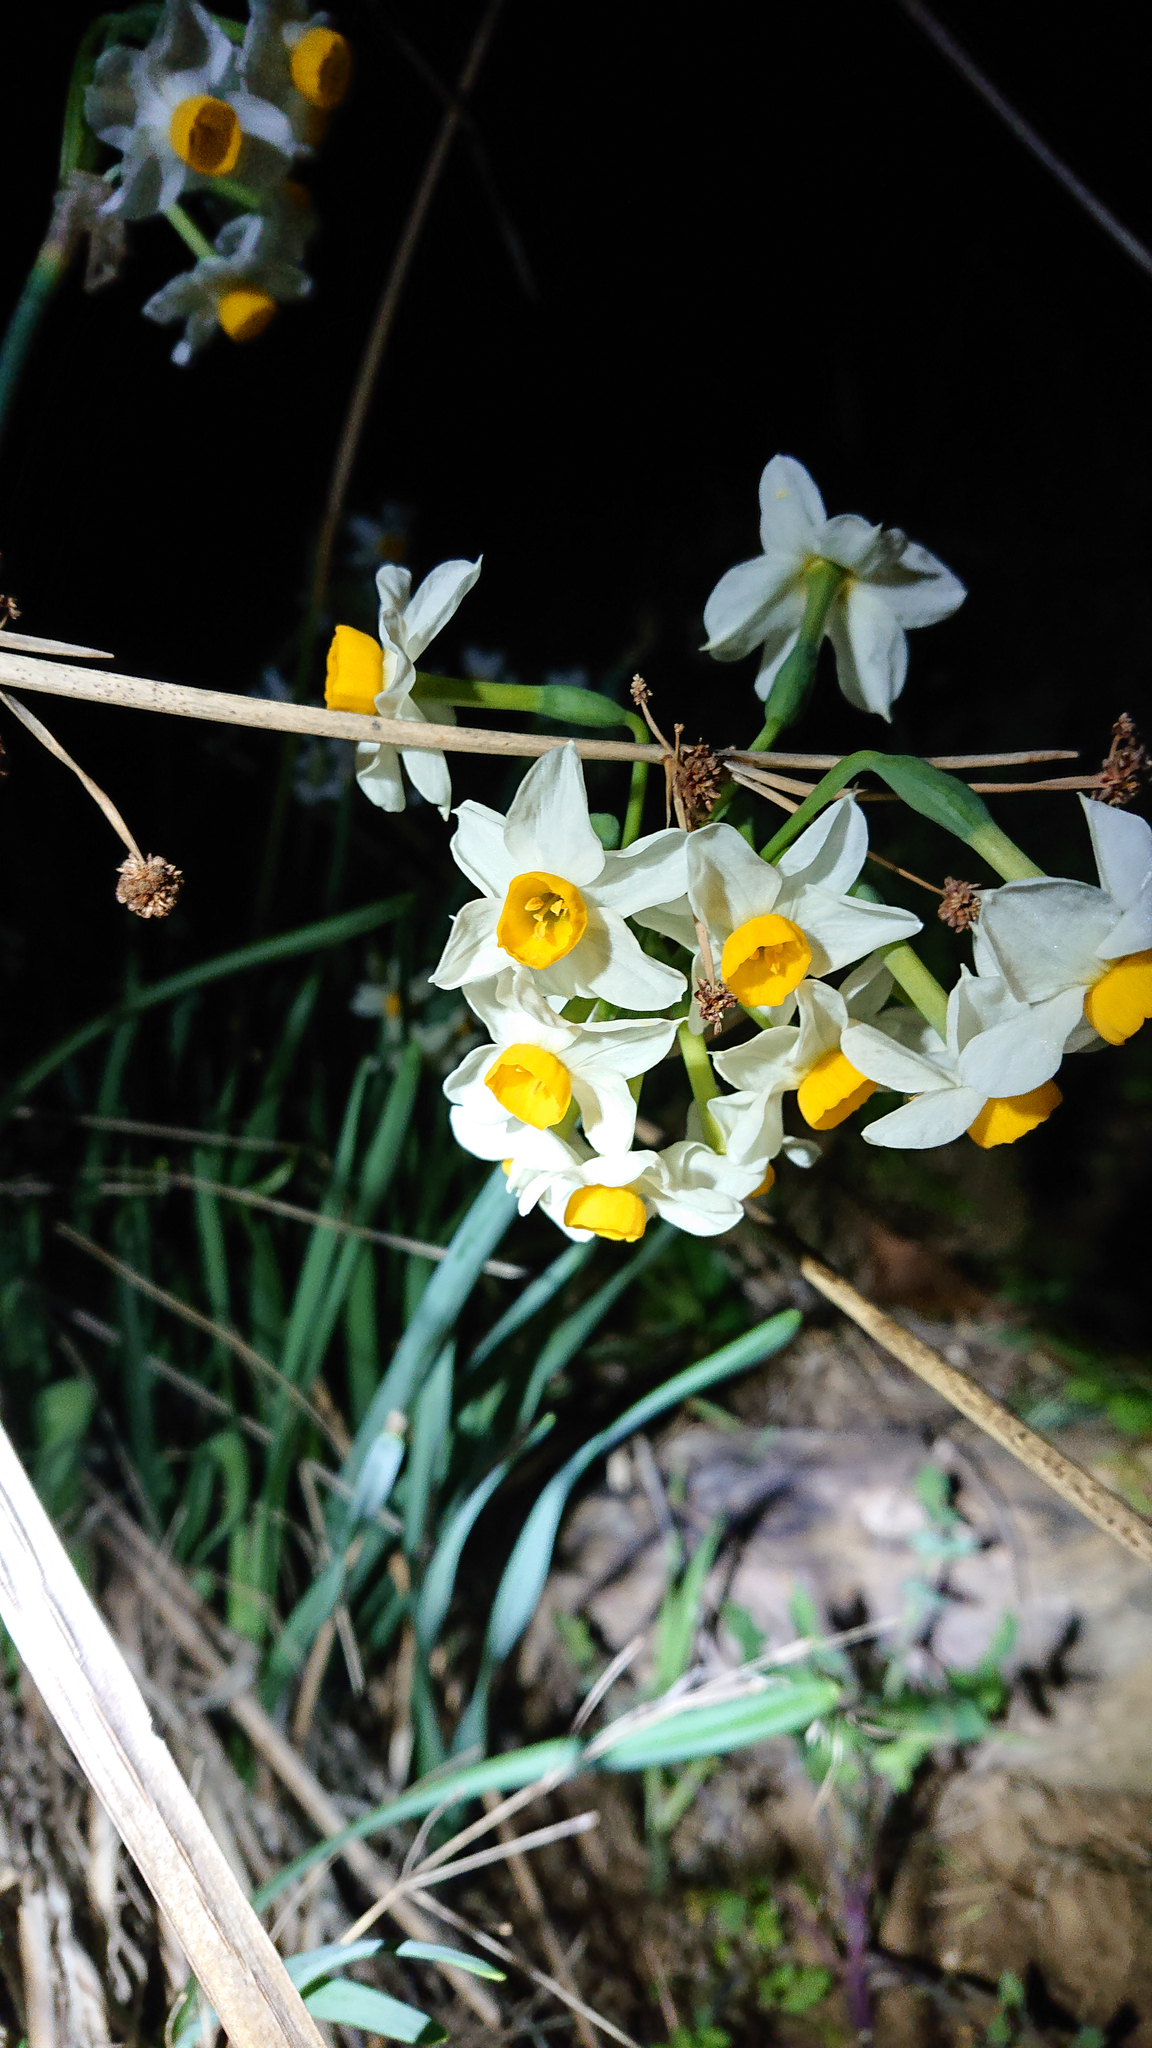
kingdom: Plantae
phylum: Tracheophyta
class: Liliopsida
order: Asparagales
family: Amaryllidaceae
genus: Narcissus
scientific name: Narcissus tazetta
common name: Bunch-flowered daffodil
